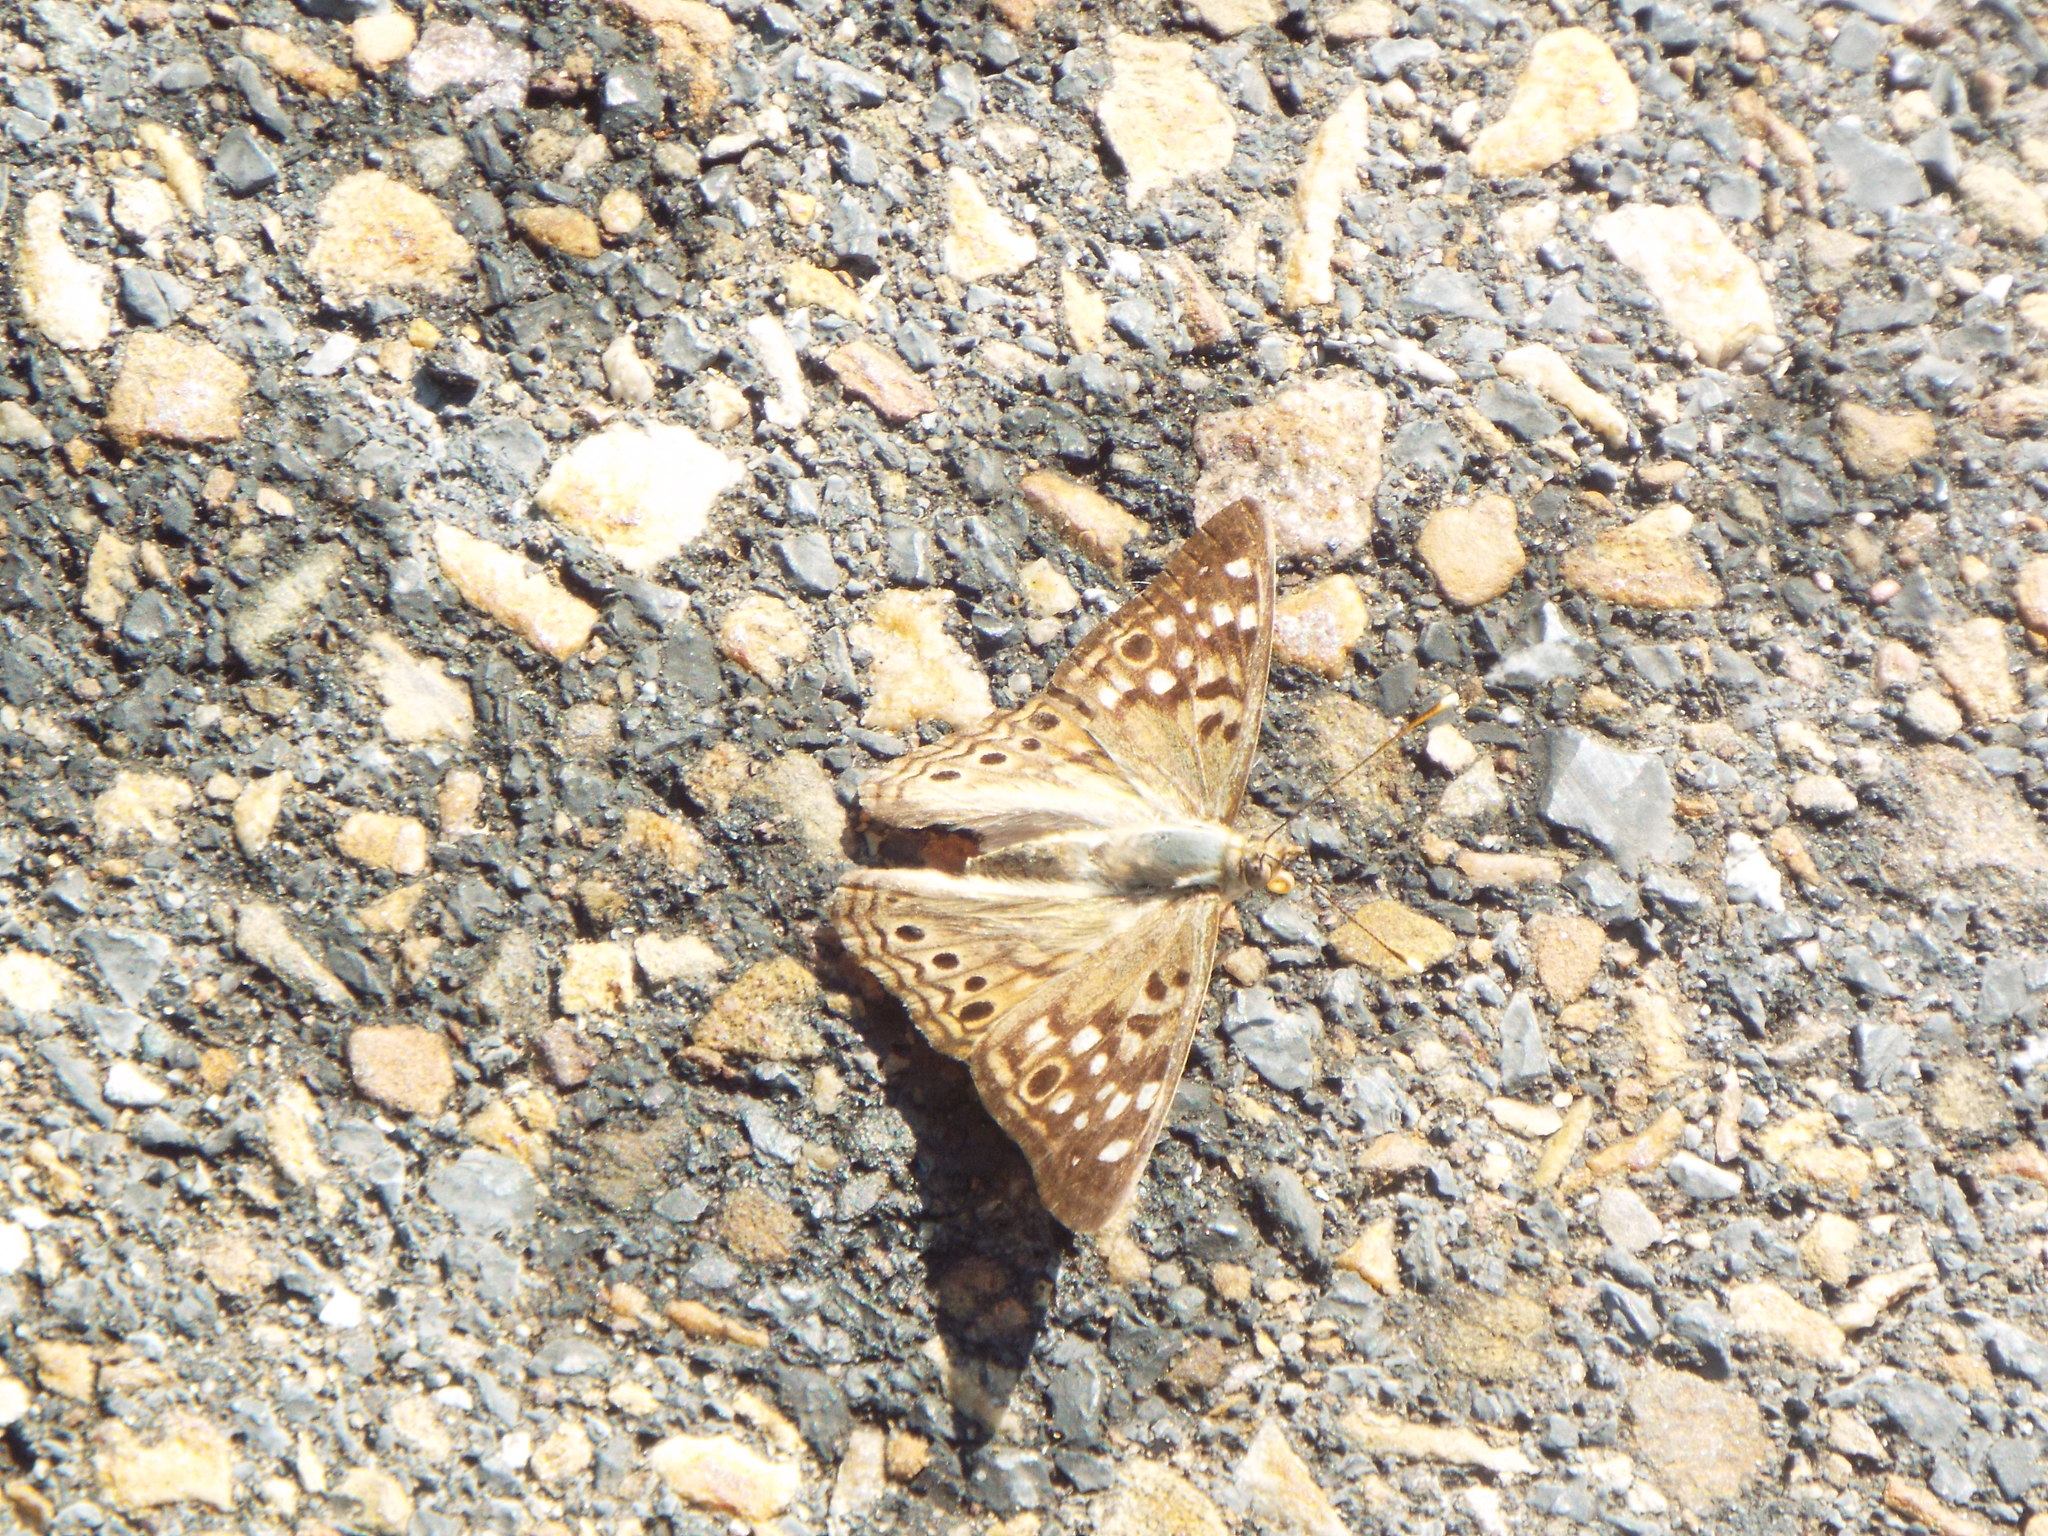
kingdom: Animalia
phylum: Arthropoda
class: Insecta
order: Lepidoptera
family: Nymphalidae
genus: Asterocampa
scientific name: Asterocampa celtis
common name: Hackberry emperor
